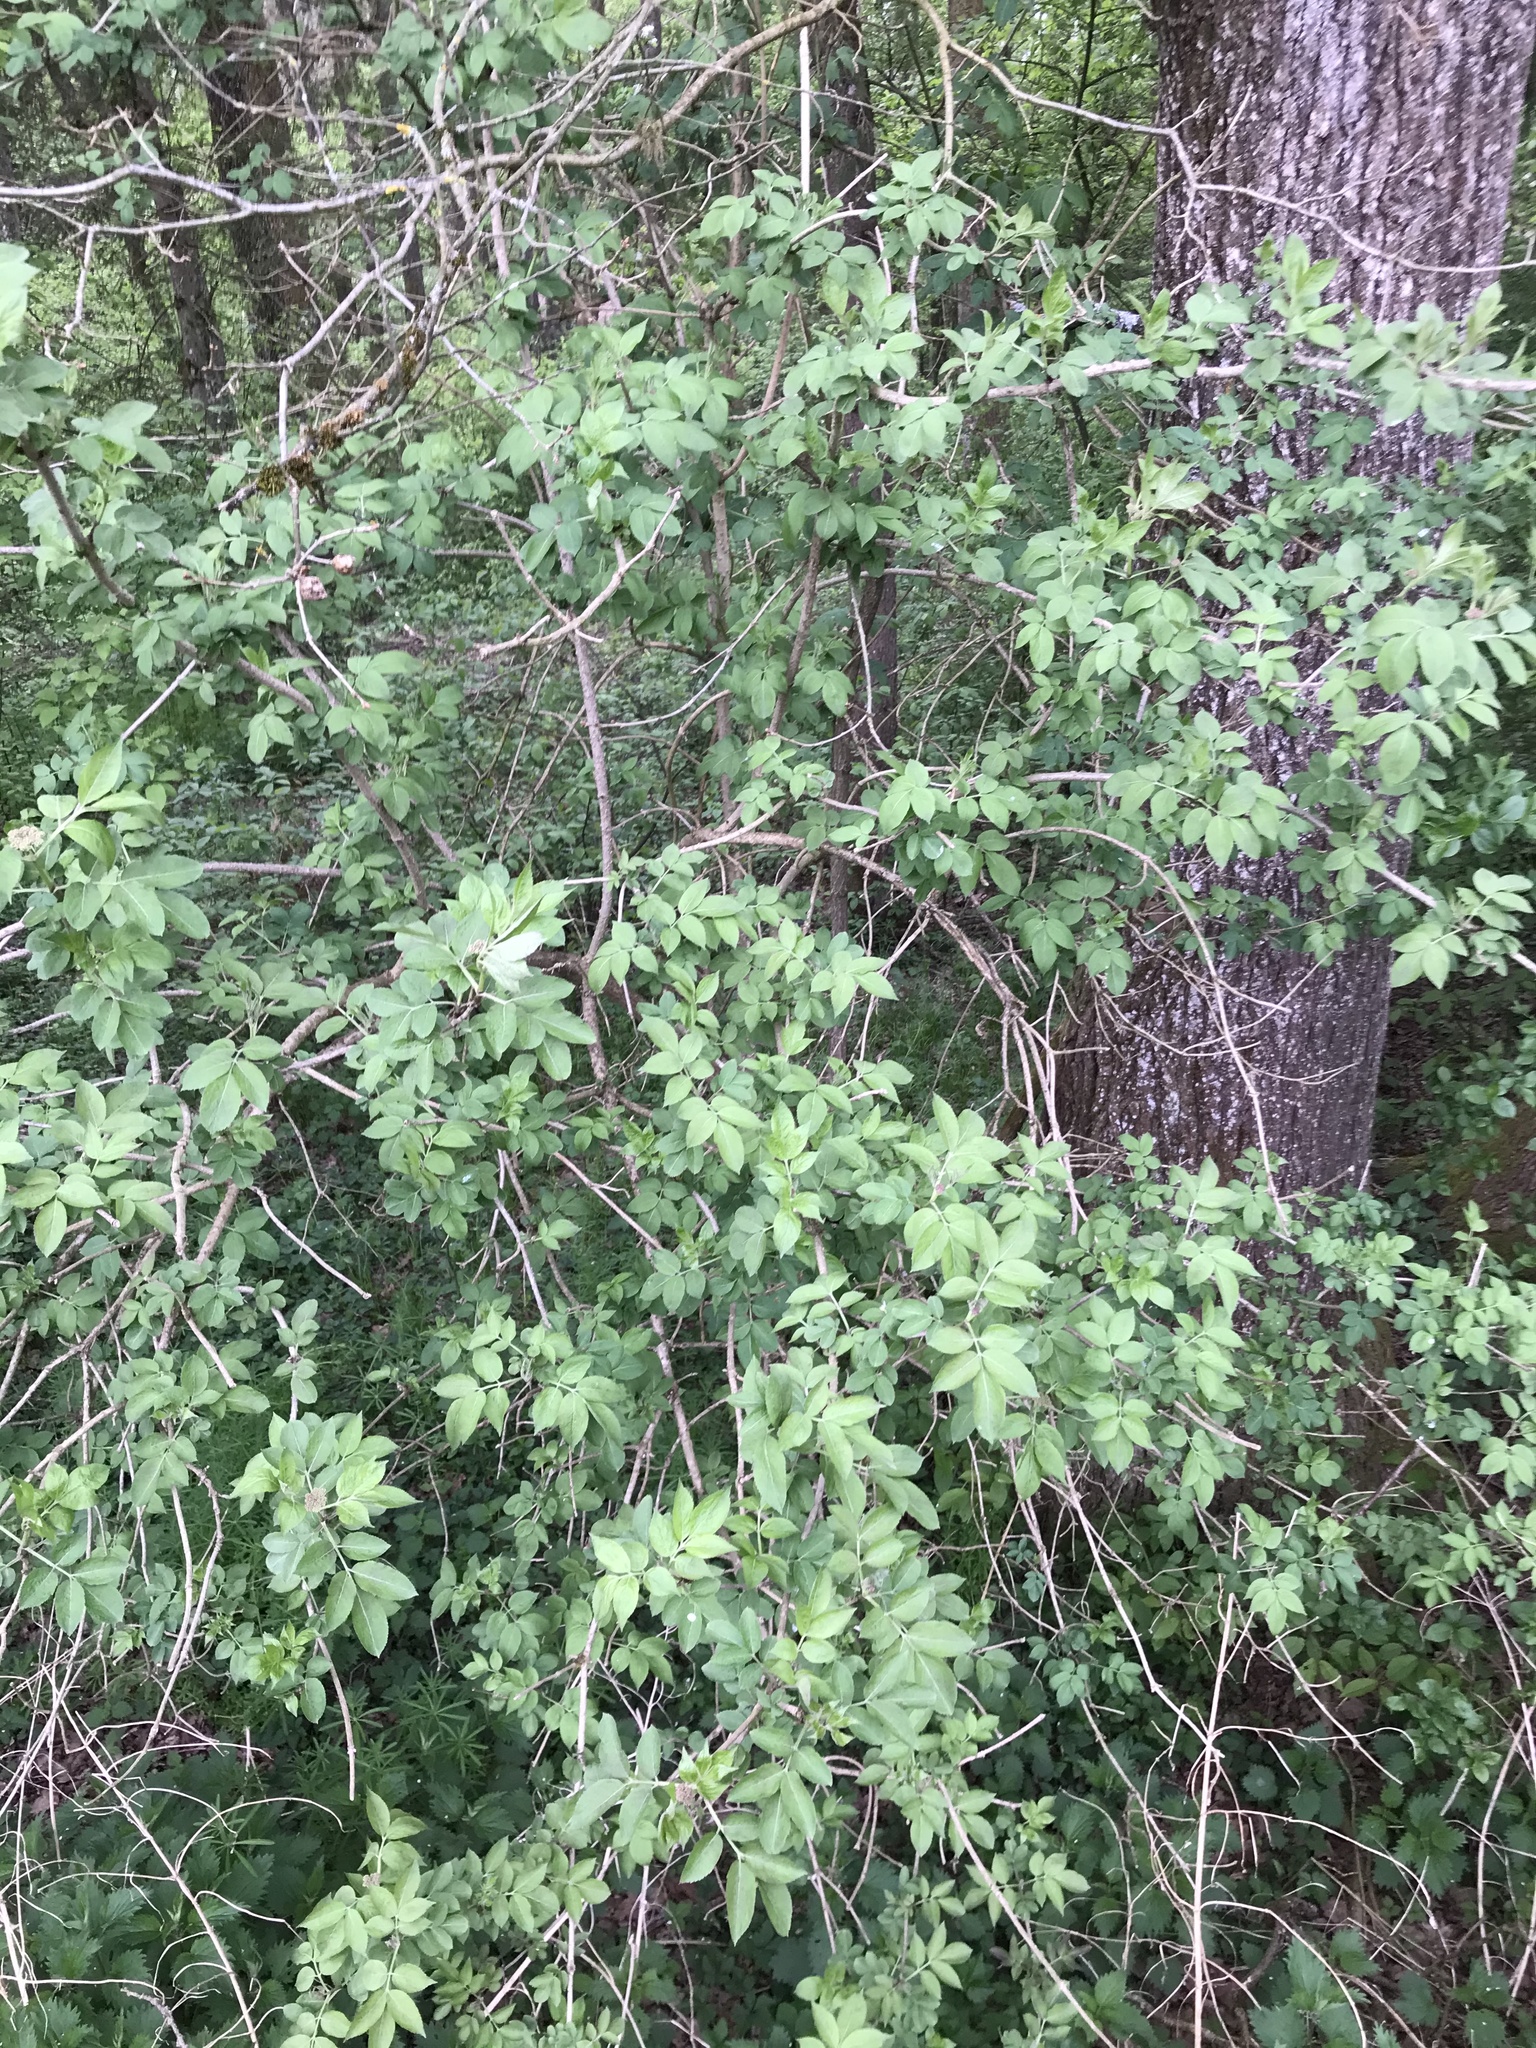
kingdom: Plantae
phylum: Tracheophyta
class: Magnoliopsida
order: Dipsacales
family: Viburnaceae
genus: Sambucus
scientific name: Sambucus nigra
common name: Elder
